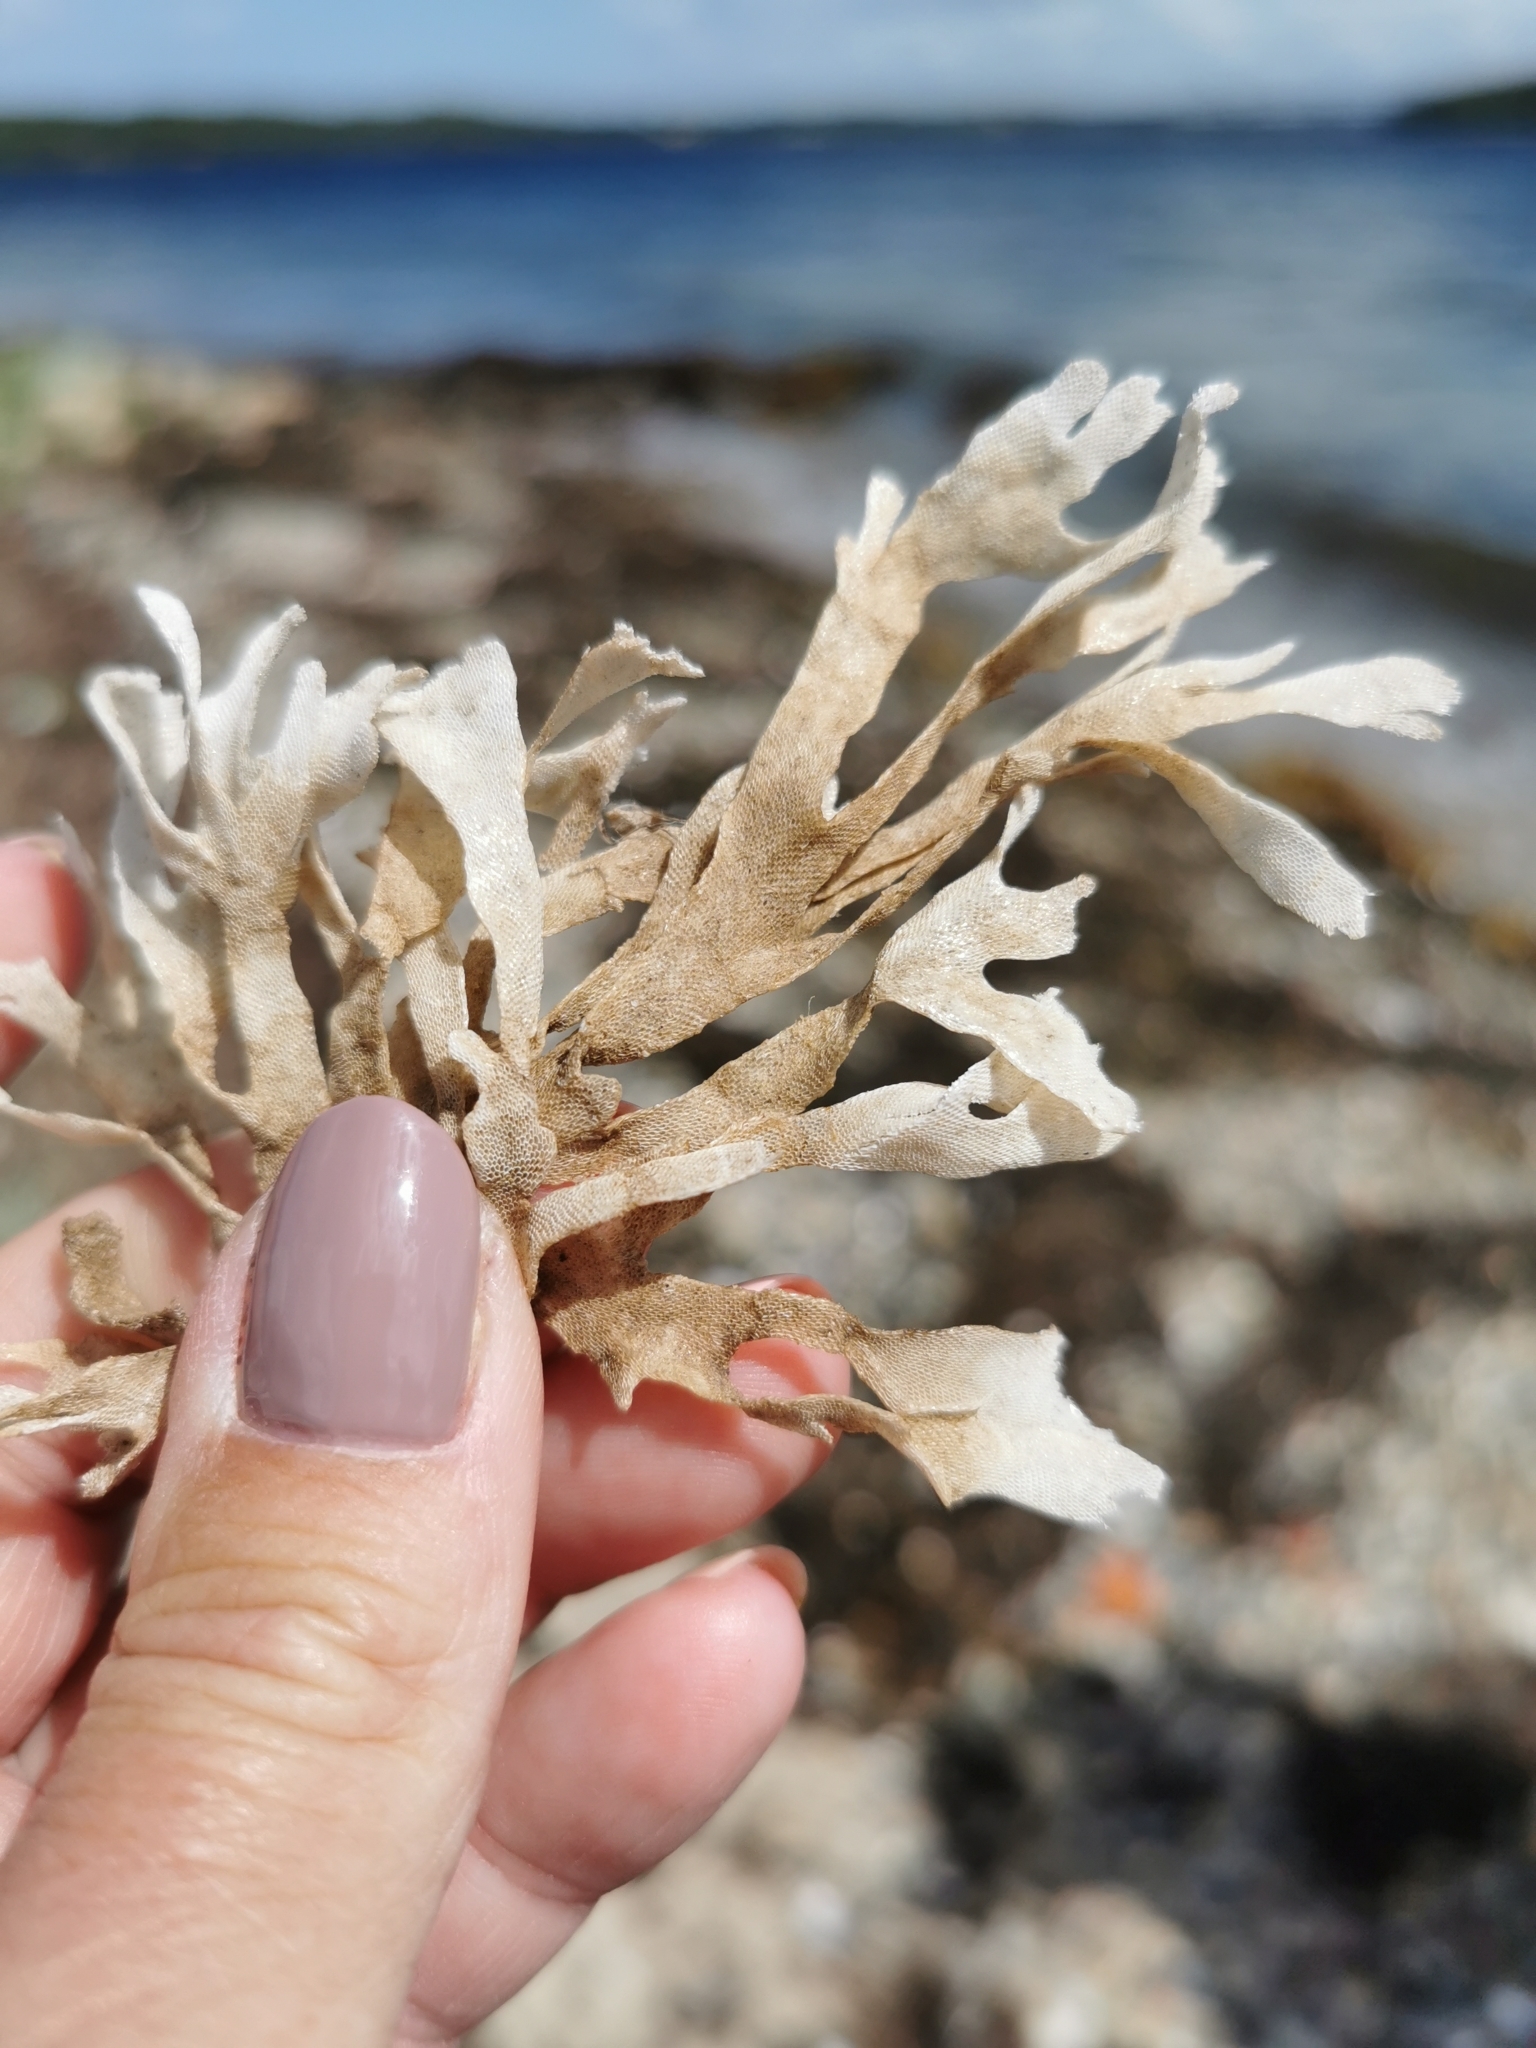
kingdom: Animalia
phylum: Bryozoa
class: Gymnolaemata
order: Cheilostomatida
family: Flustridae
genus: Flustra
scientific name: Flustra foliacea
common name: Hornwrack
